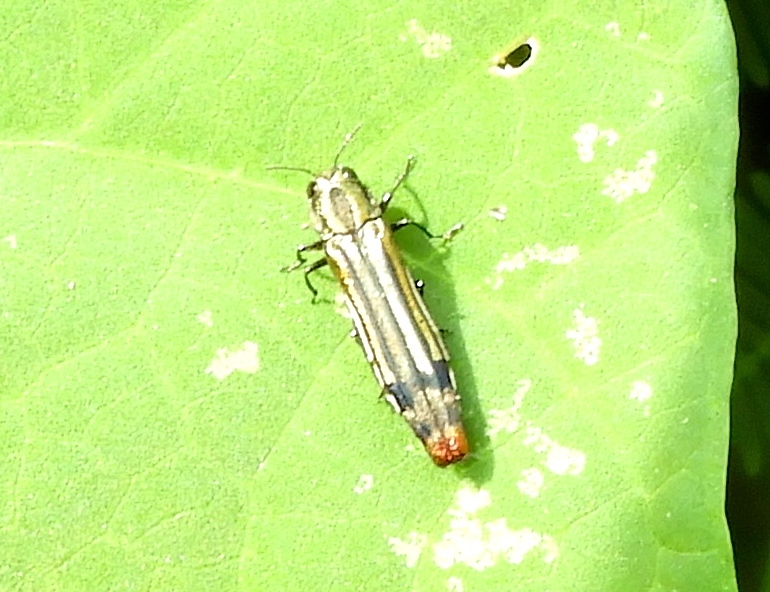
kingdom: Animalia
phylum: Arthropoda
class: Insecta
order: Coleoptera
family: Buprestidae
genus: Agrilus
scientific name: Agrilus catherinae
